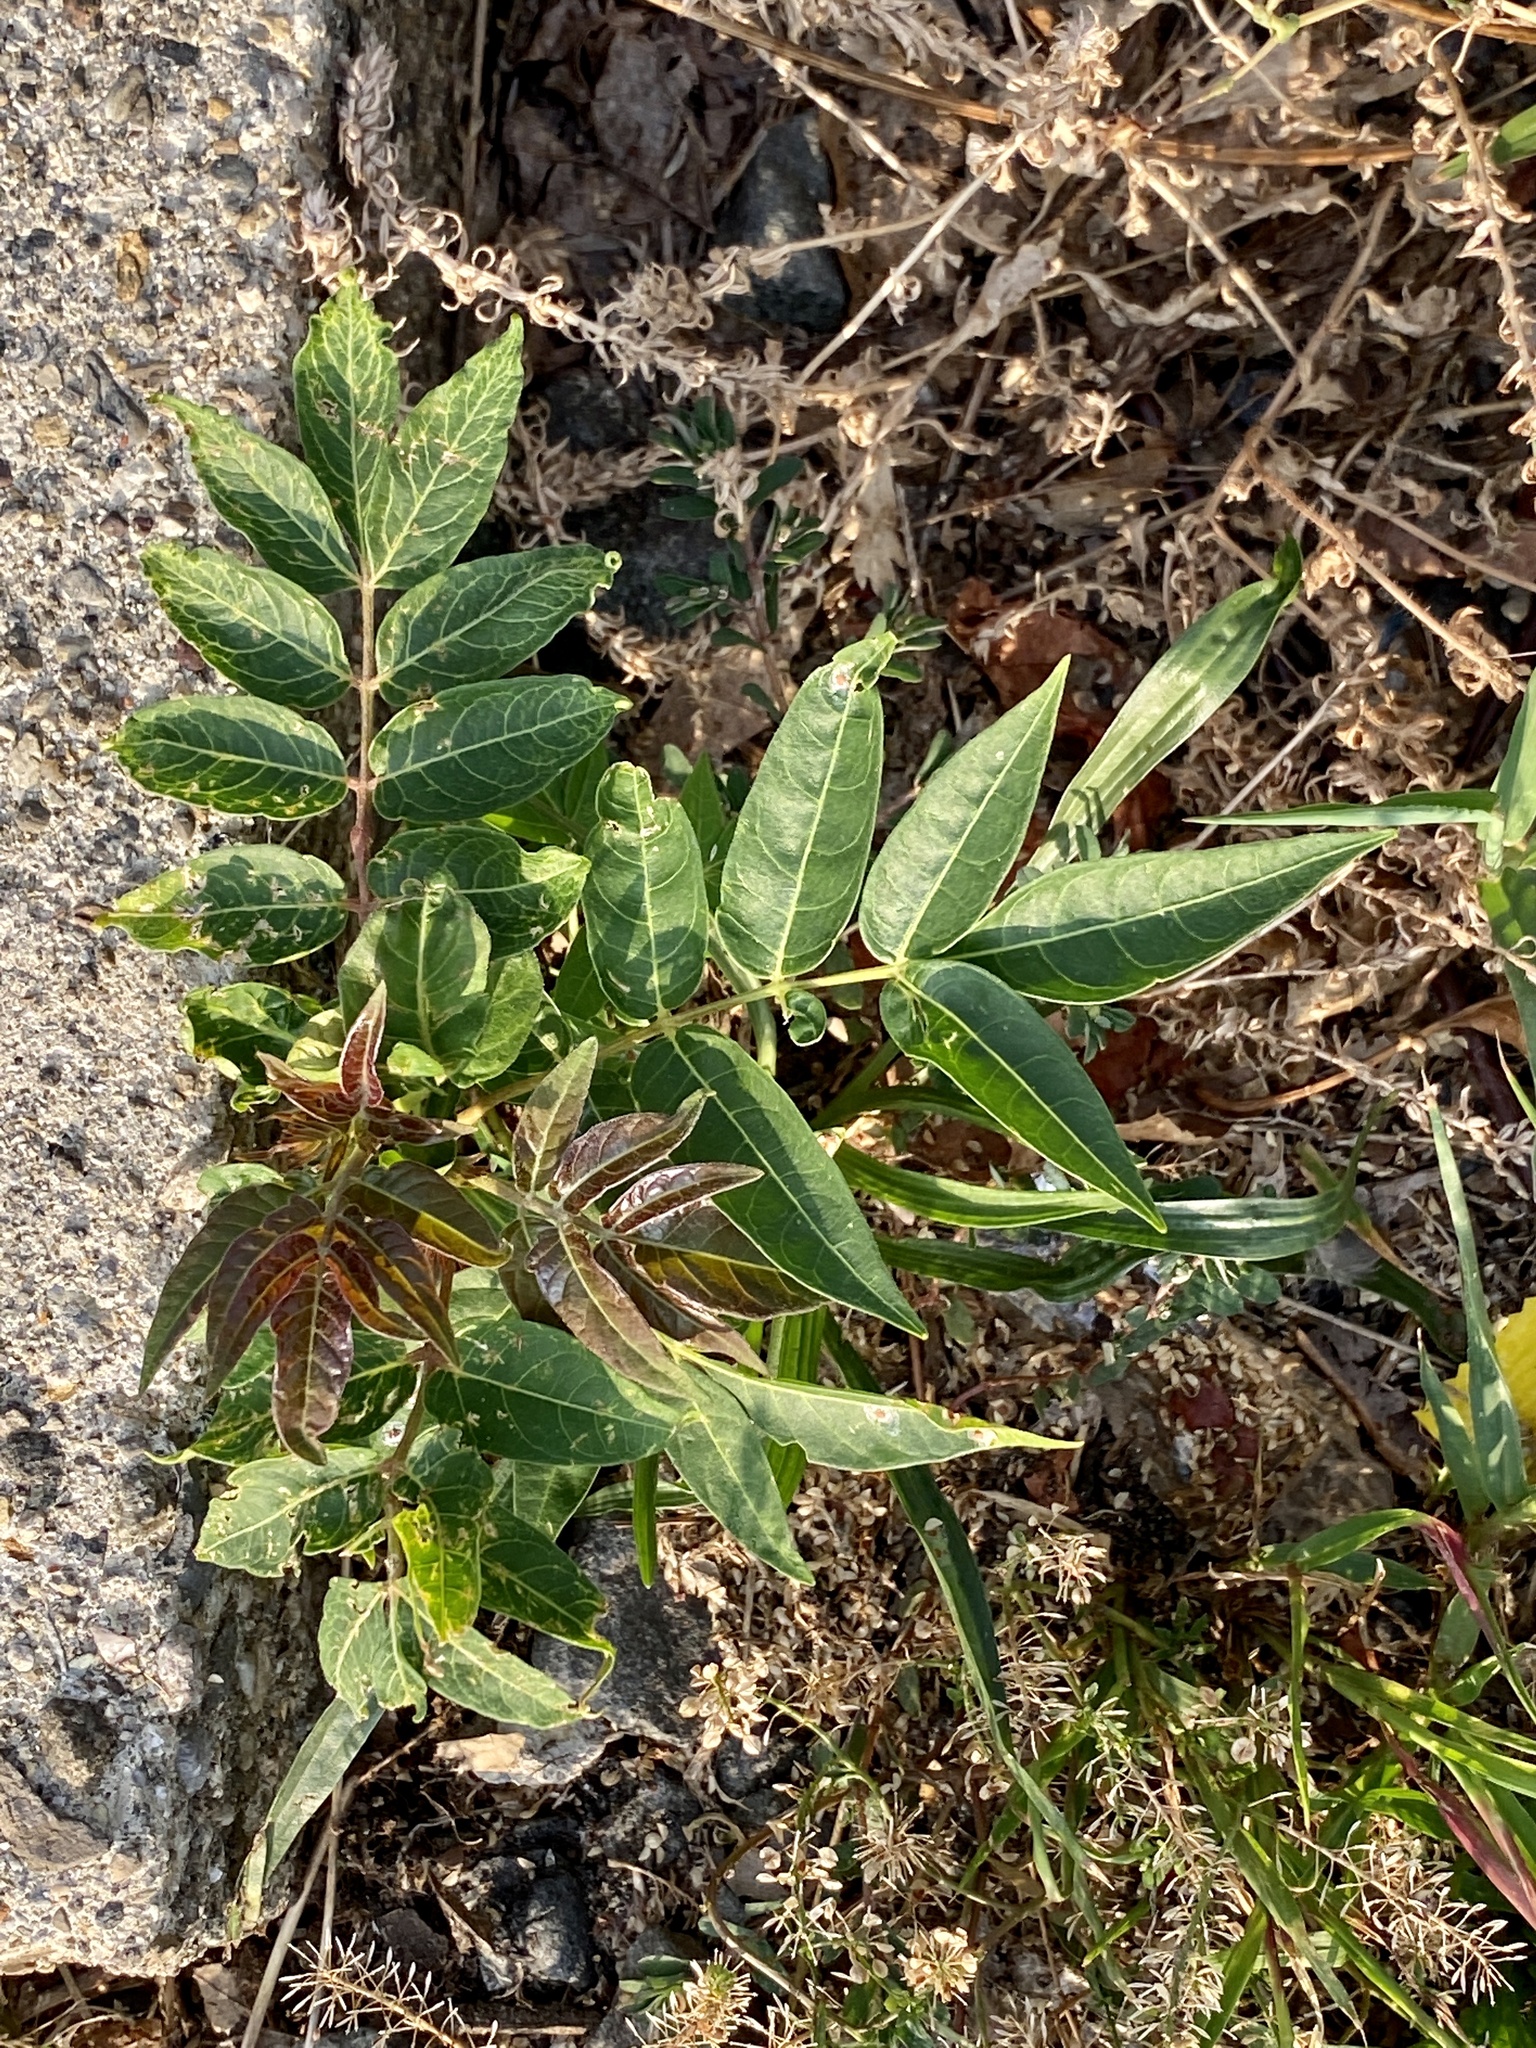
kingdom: Plantae
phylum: Tracheophyta
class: Magnoliopsida
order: Sapindales
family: Simaroubaceae
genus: Ailanthus
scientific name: Ailanthus altissima
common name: Tree-of-heaven
